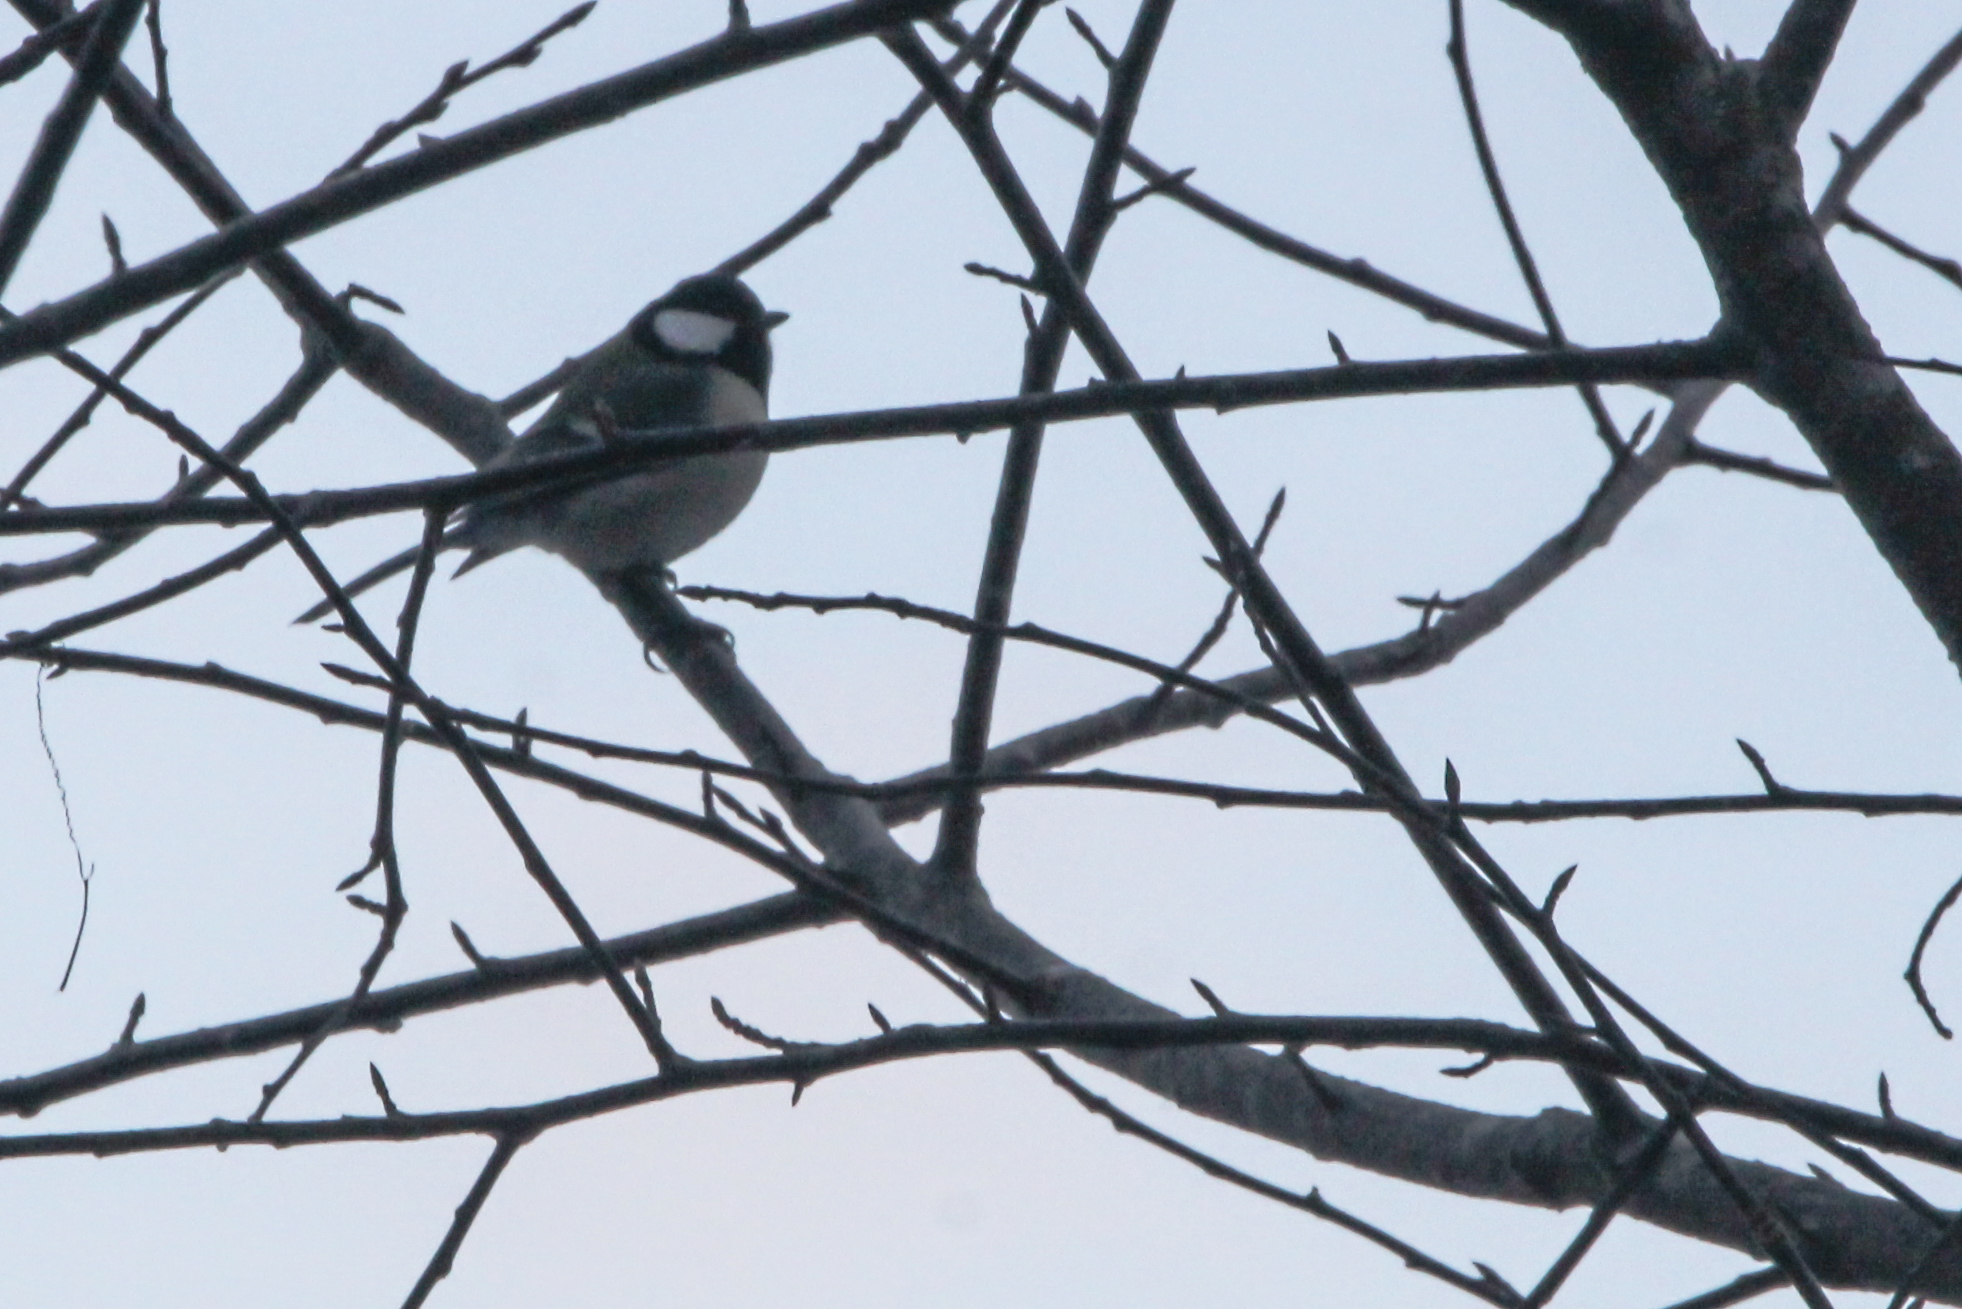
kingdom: Animalia
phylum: Chordata
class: Aves
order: Passeriformes
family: Paridae
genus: Parus
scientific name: Parus minor
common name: Japanese tit
